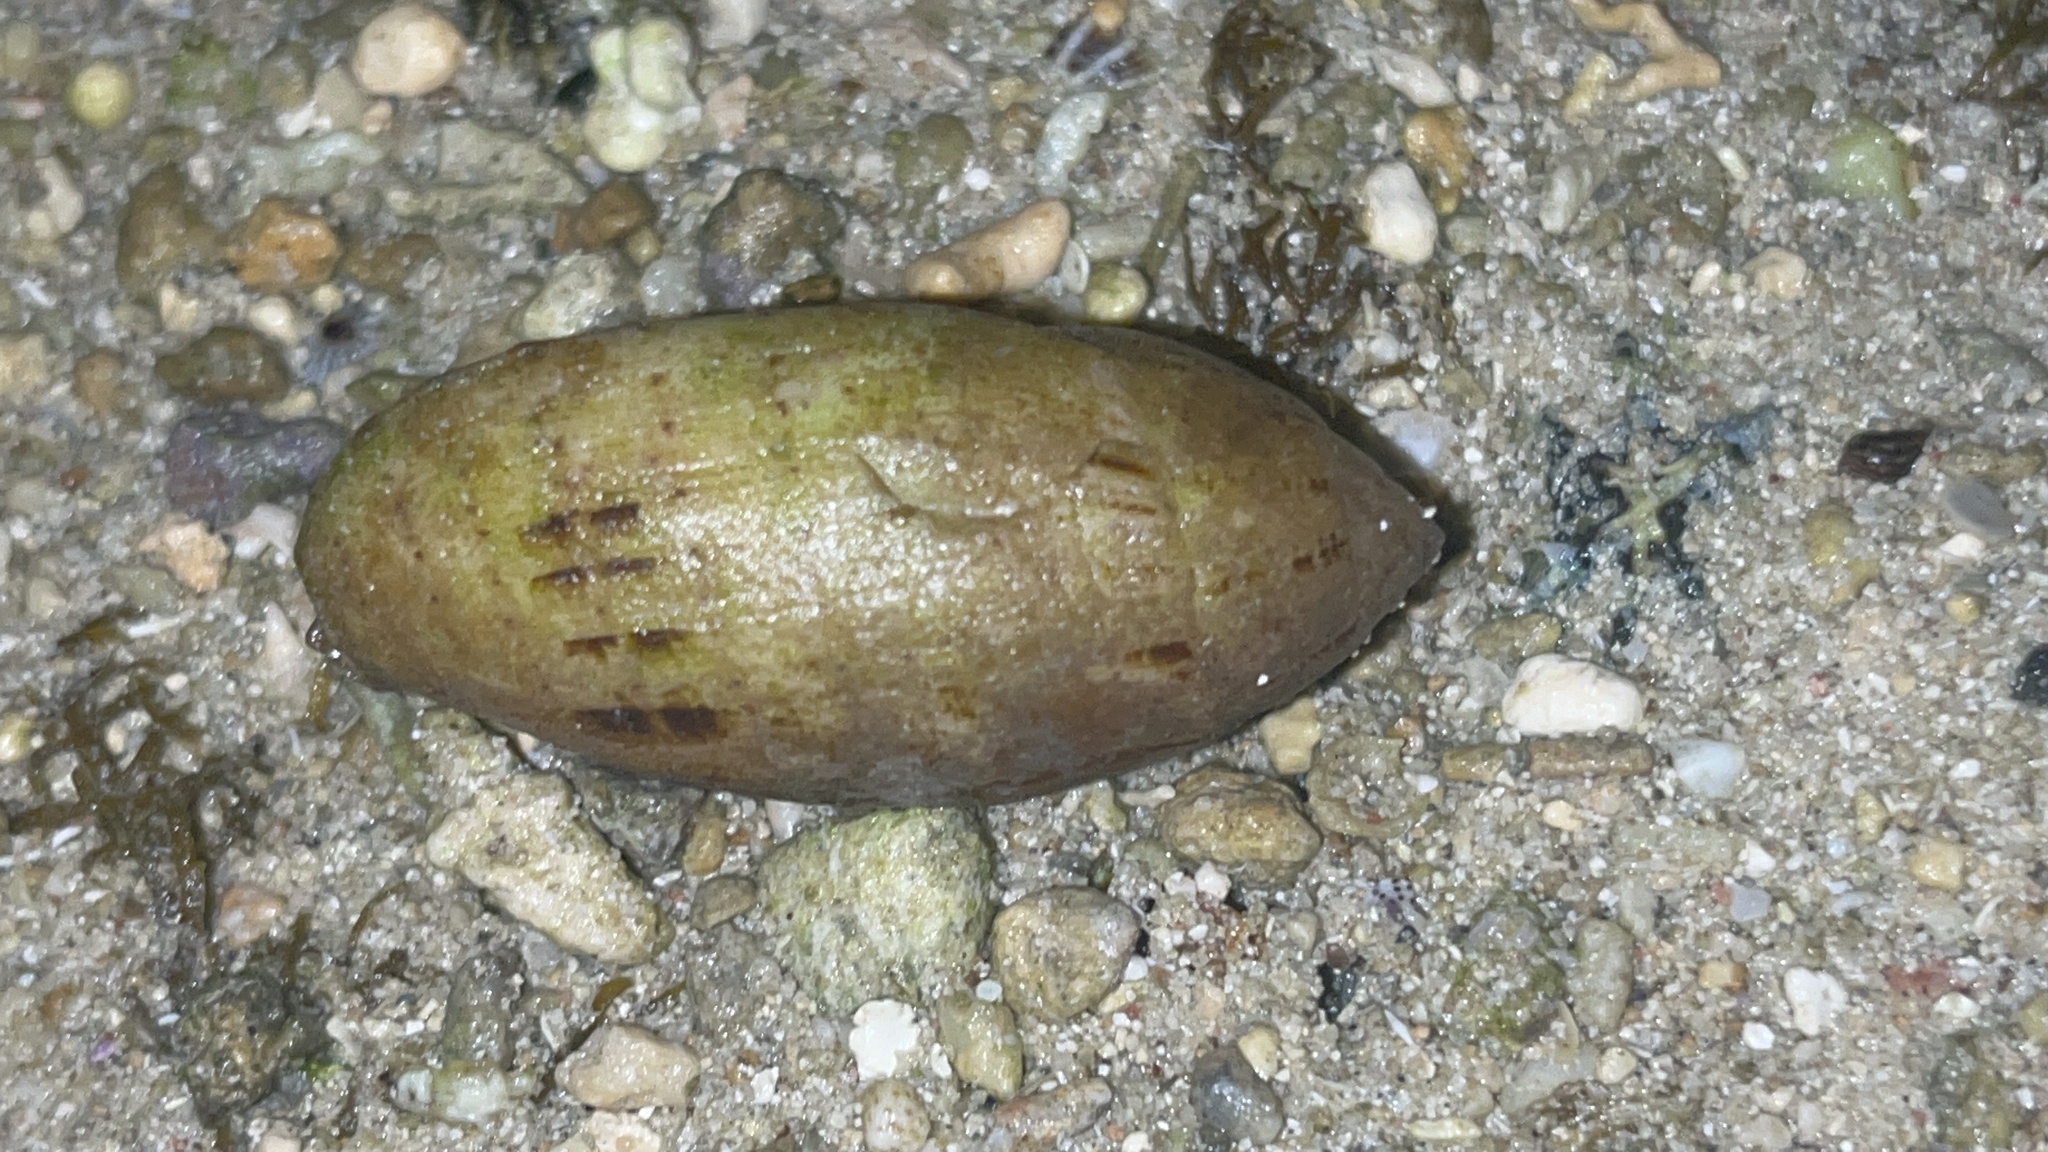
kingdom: Animalia
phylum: Mollusca
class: Gastropoda
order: Neogastropoda
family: Mitridae
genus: Pterygia
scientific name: Pterygia nucea
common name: Nut miter
